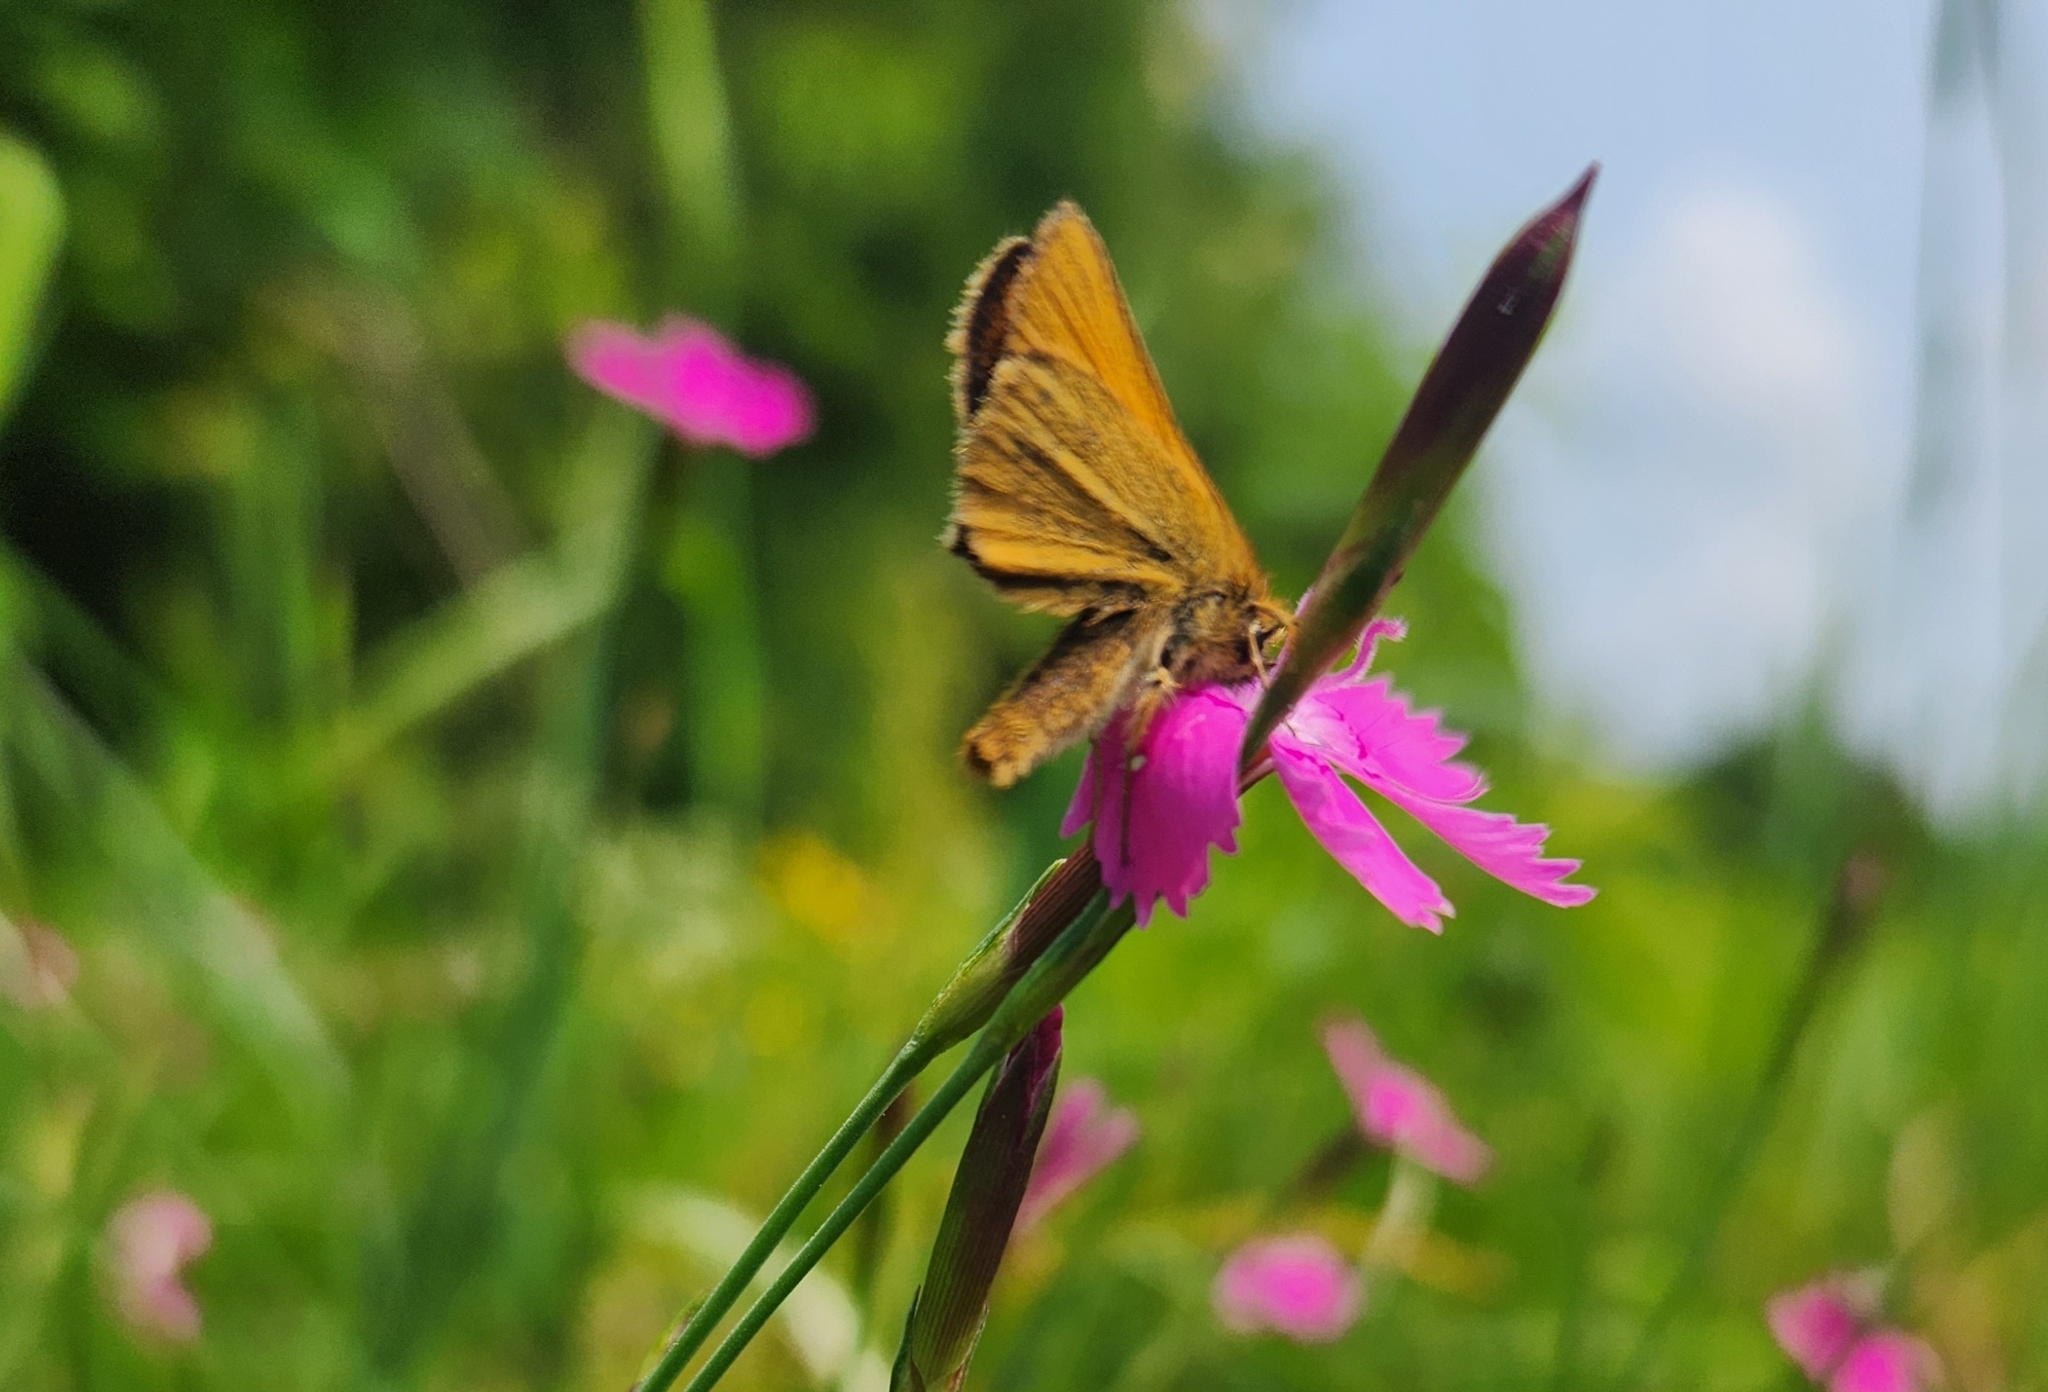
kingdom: Animalia
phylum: Arthropoda
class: Insecta
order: Lepidoptera
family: Hesperiidae
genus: Thymelicus
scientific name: Thymelicus lineola
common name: Essex skipper
